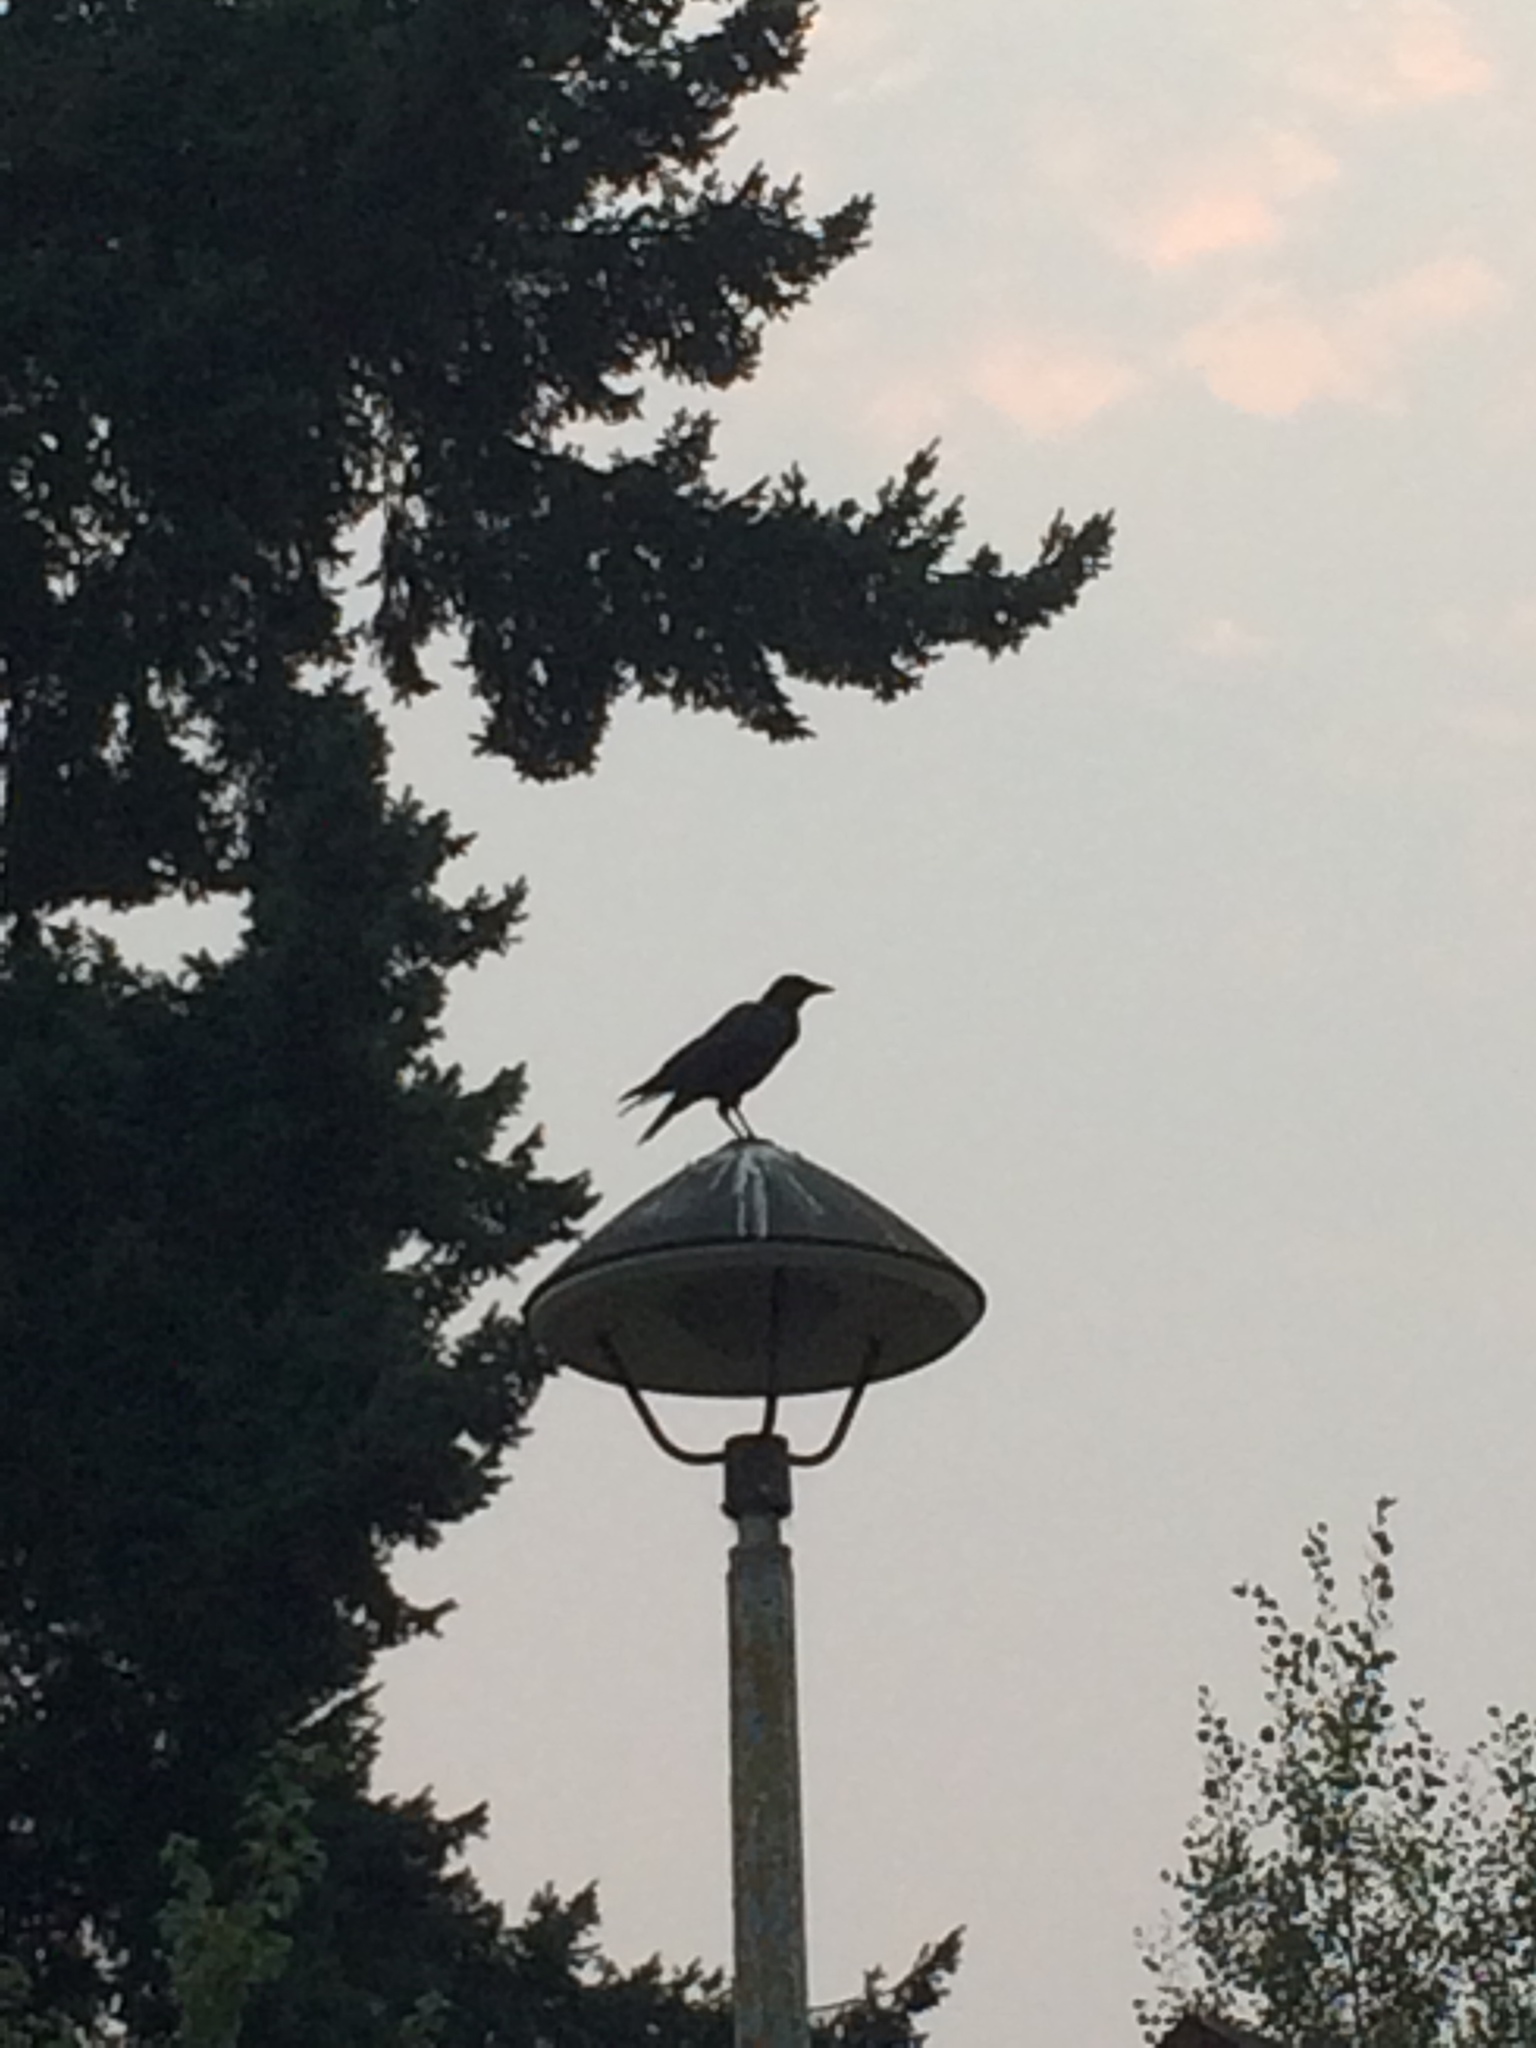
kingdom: Animalia
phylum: Chordata
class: Aves
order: Passeriformes
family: Corvidae
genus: Corvus
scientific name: Corvus brachyrhynchos
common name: American crow
